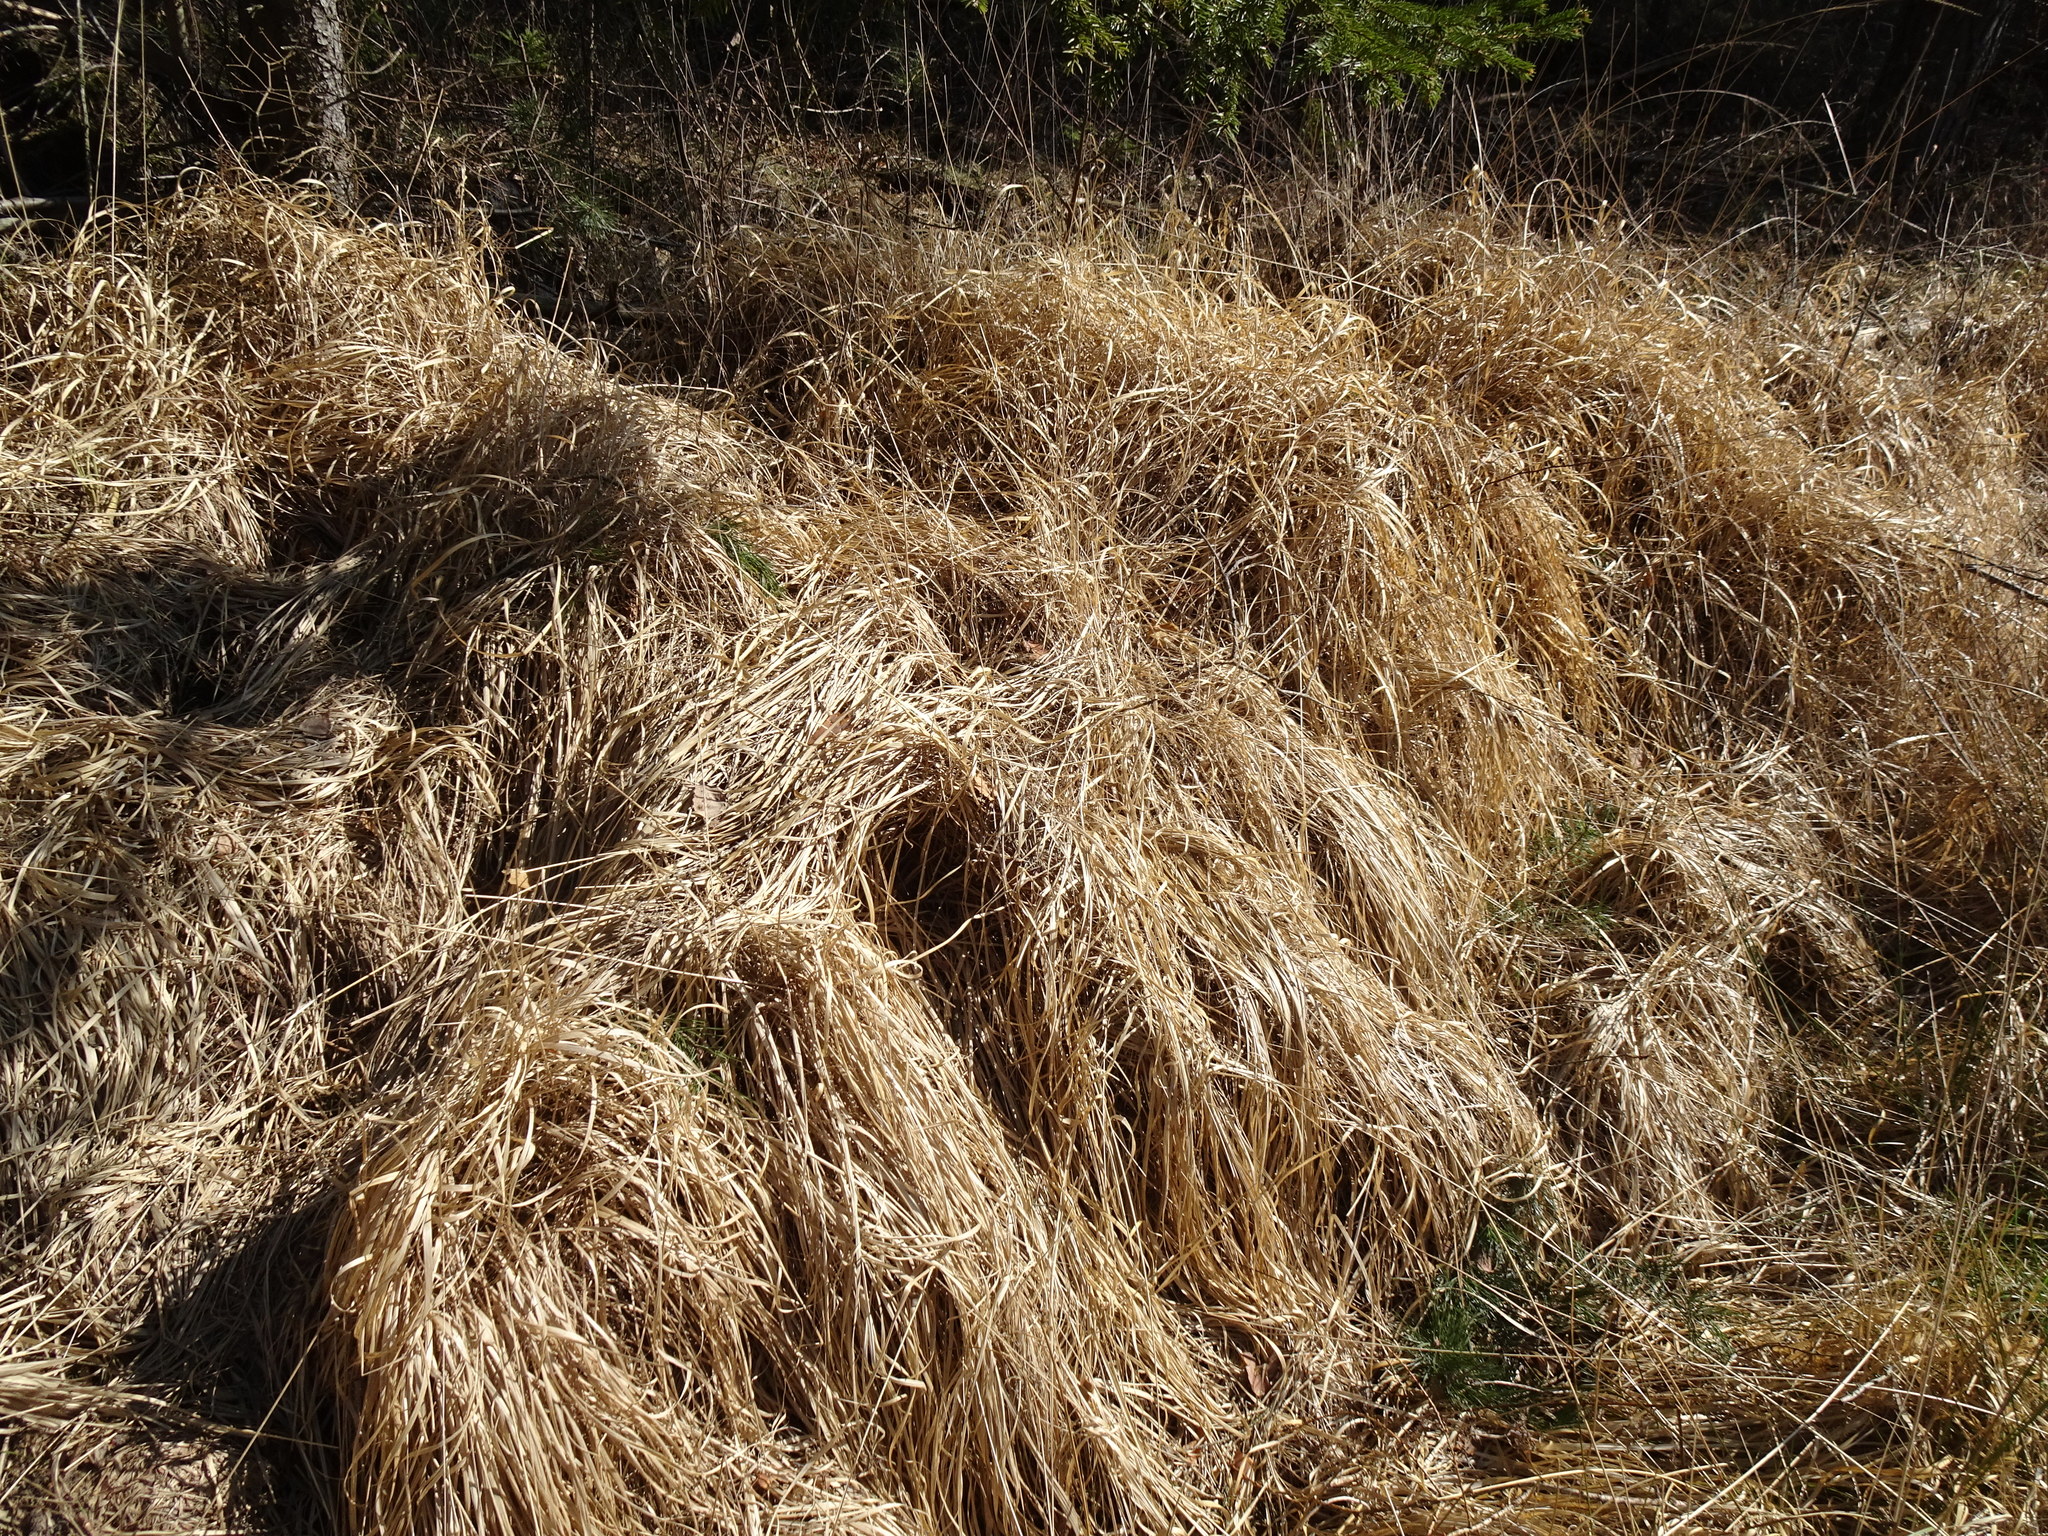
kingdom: Plantae
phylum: Tracheophyta
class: Liliopsida
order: Poales
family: Poaceae
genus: Molinia
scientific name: Molinia caerulea
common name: Purple moor-grass
